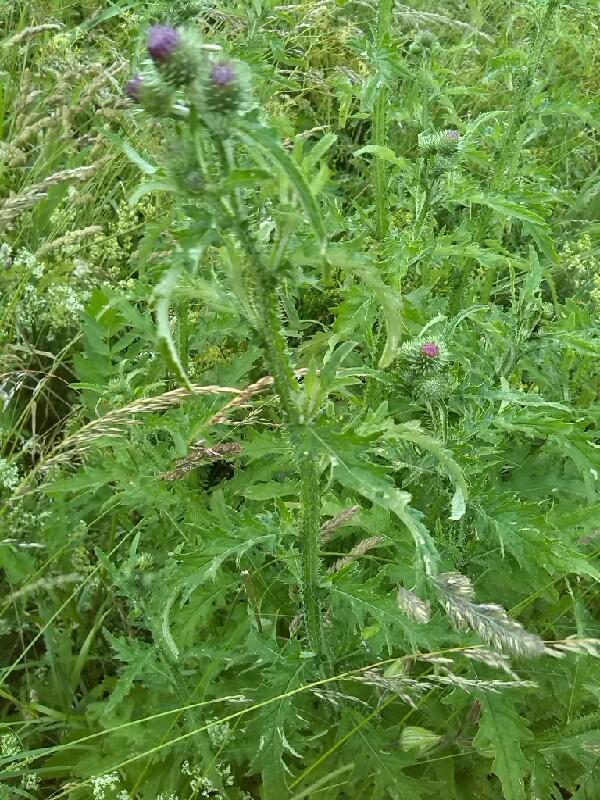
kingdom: Plantae
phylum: Tracheophyta
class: Magnoliopsida
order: Asterales
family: Asteraceae
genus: Carduus
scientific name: Carduus crispus
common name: Welted thistle
